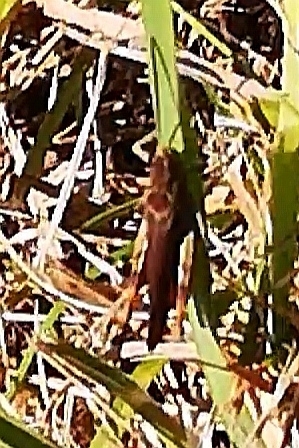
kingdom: Animalia
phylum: Arthropoda
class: Insecta
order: Orthoptera
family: Acrididae
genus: Chorthippus
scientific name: Chorthippus brunneus
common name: Field grasshopper
